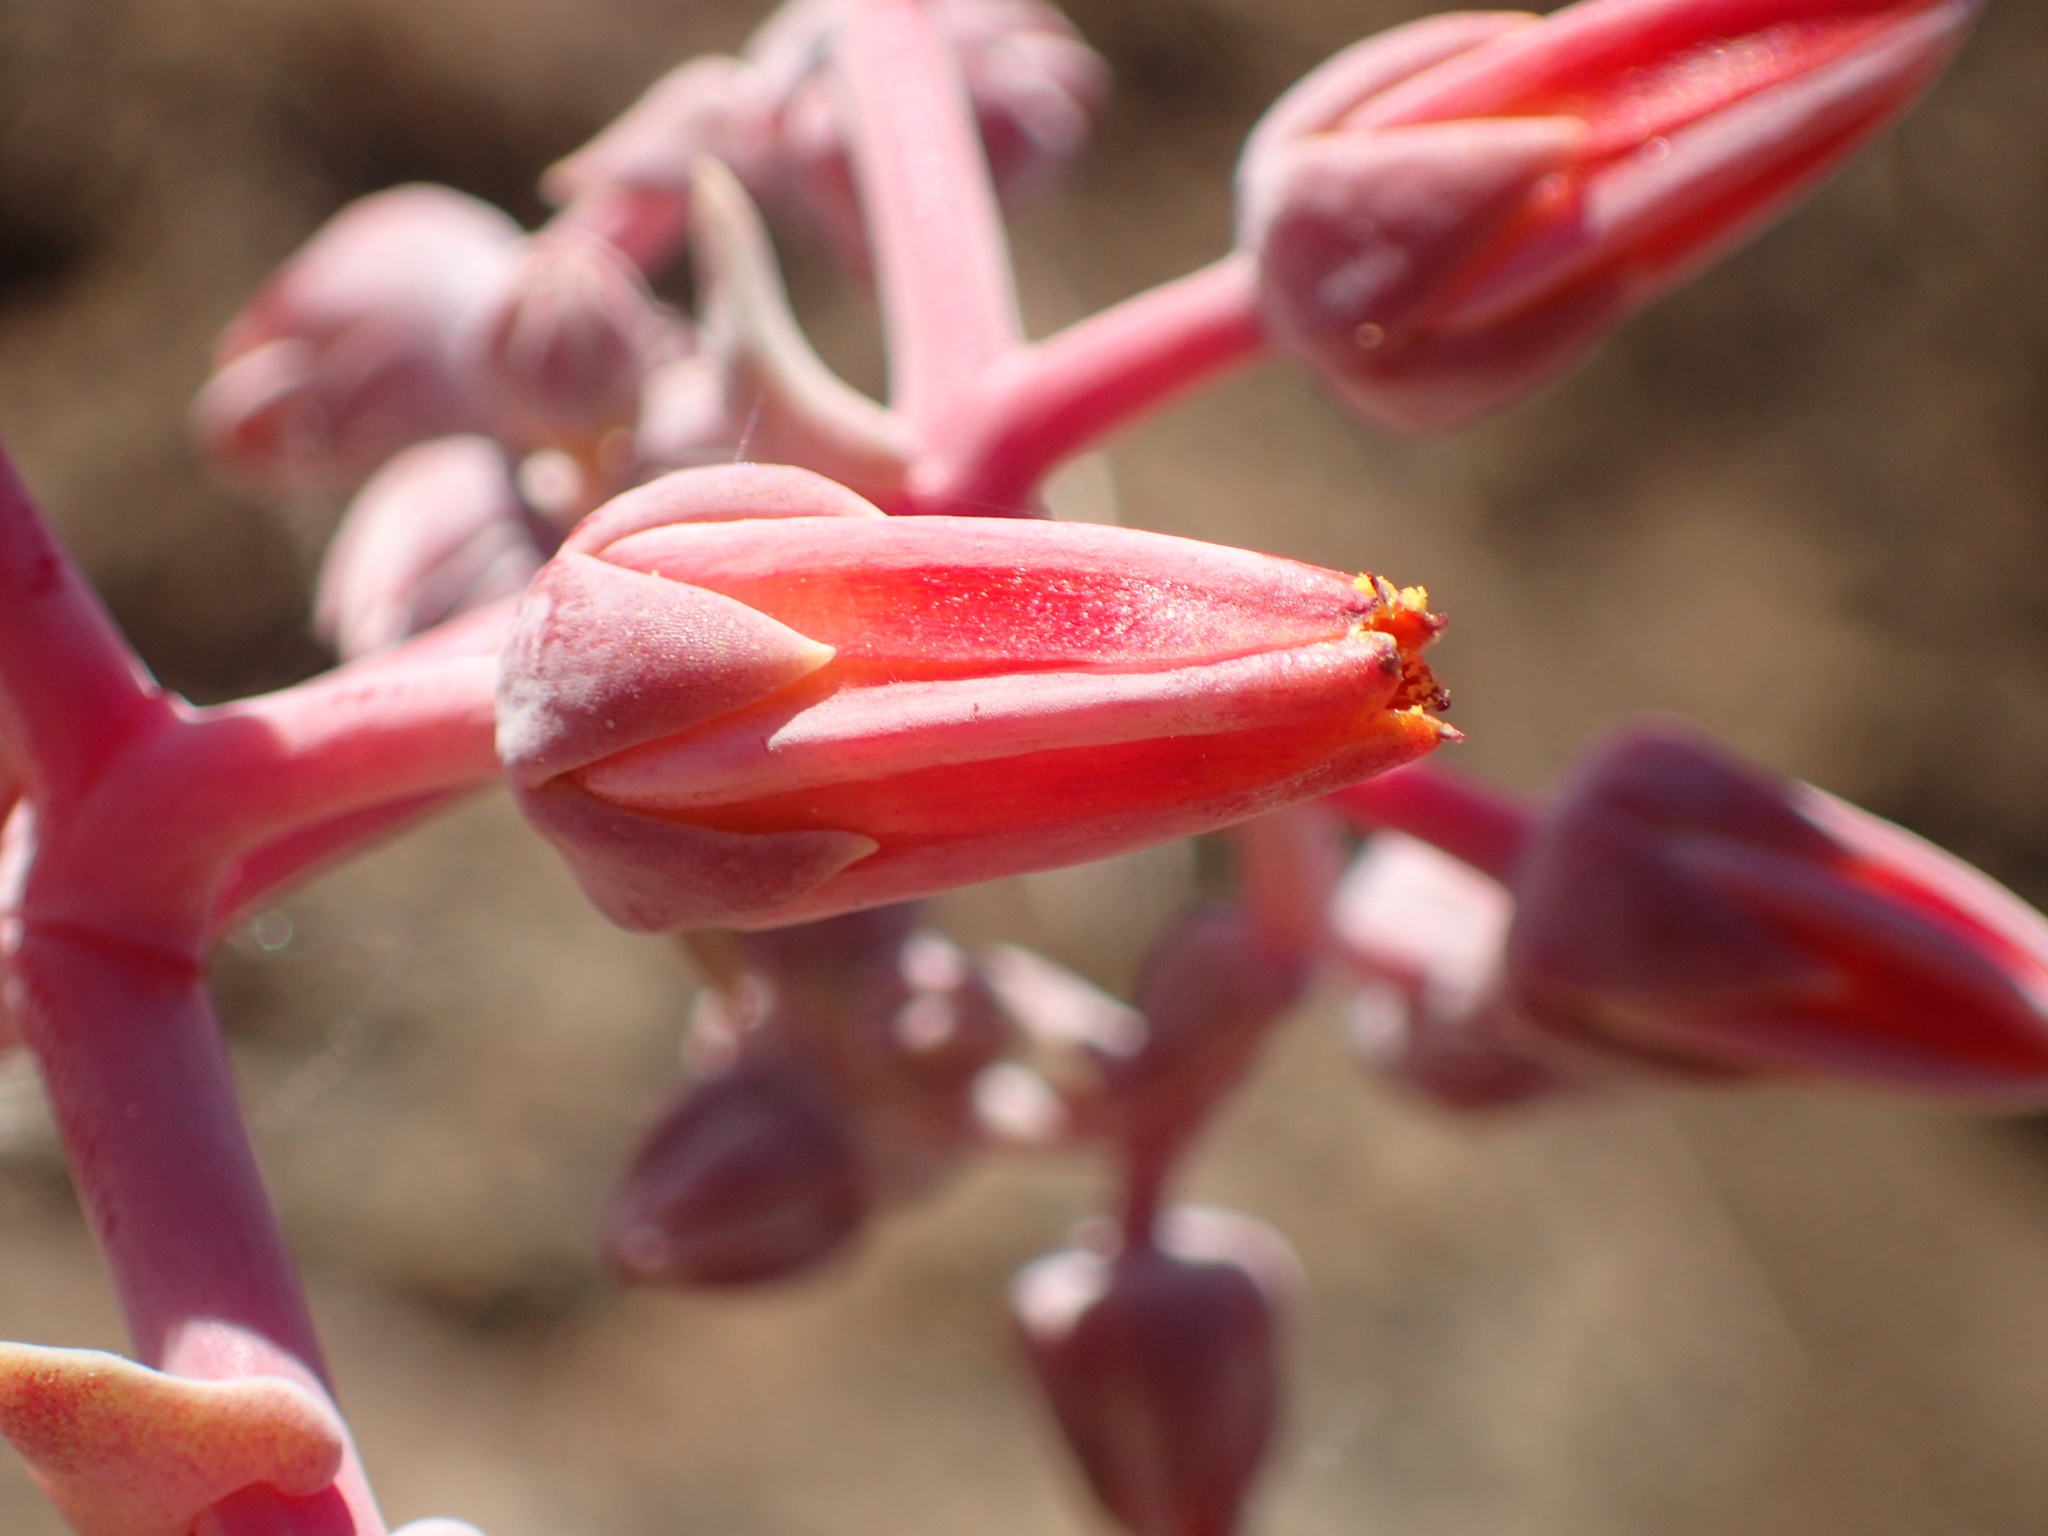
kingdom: Plantae
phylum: Tracheophyta
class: Magnoliopsida
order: Saxifragales
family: Crassulaceae
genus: Dudleya
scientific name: Dudleya lanceolata
